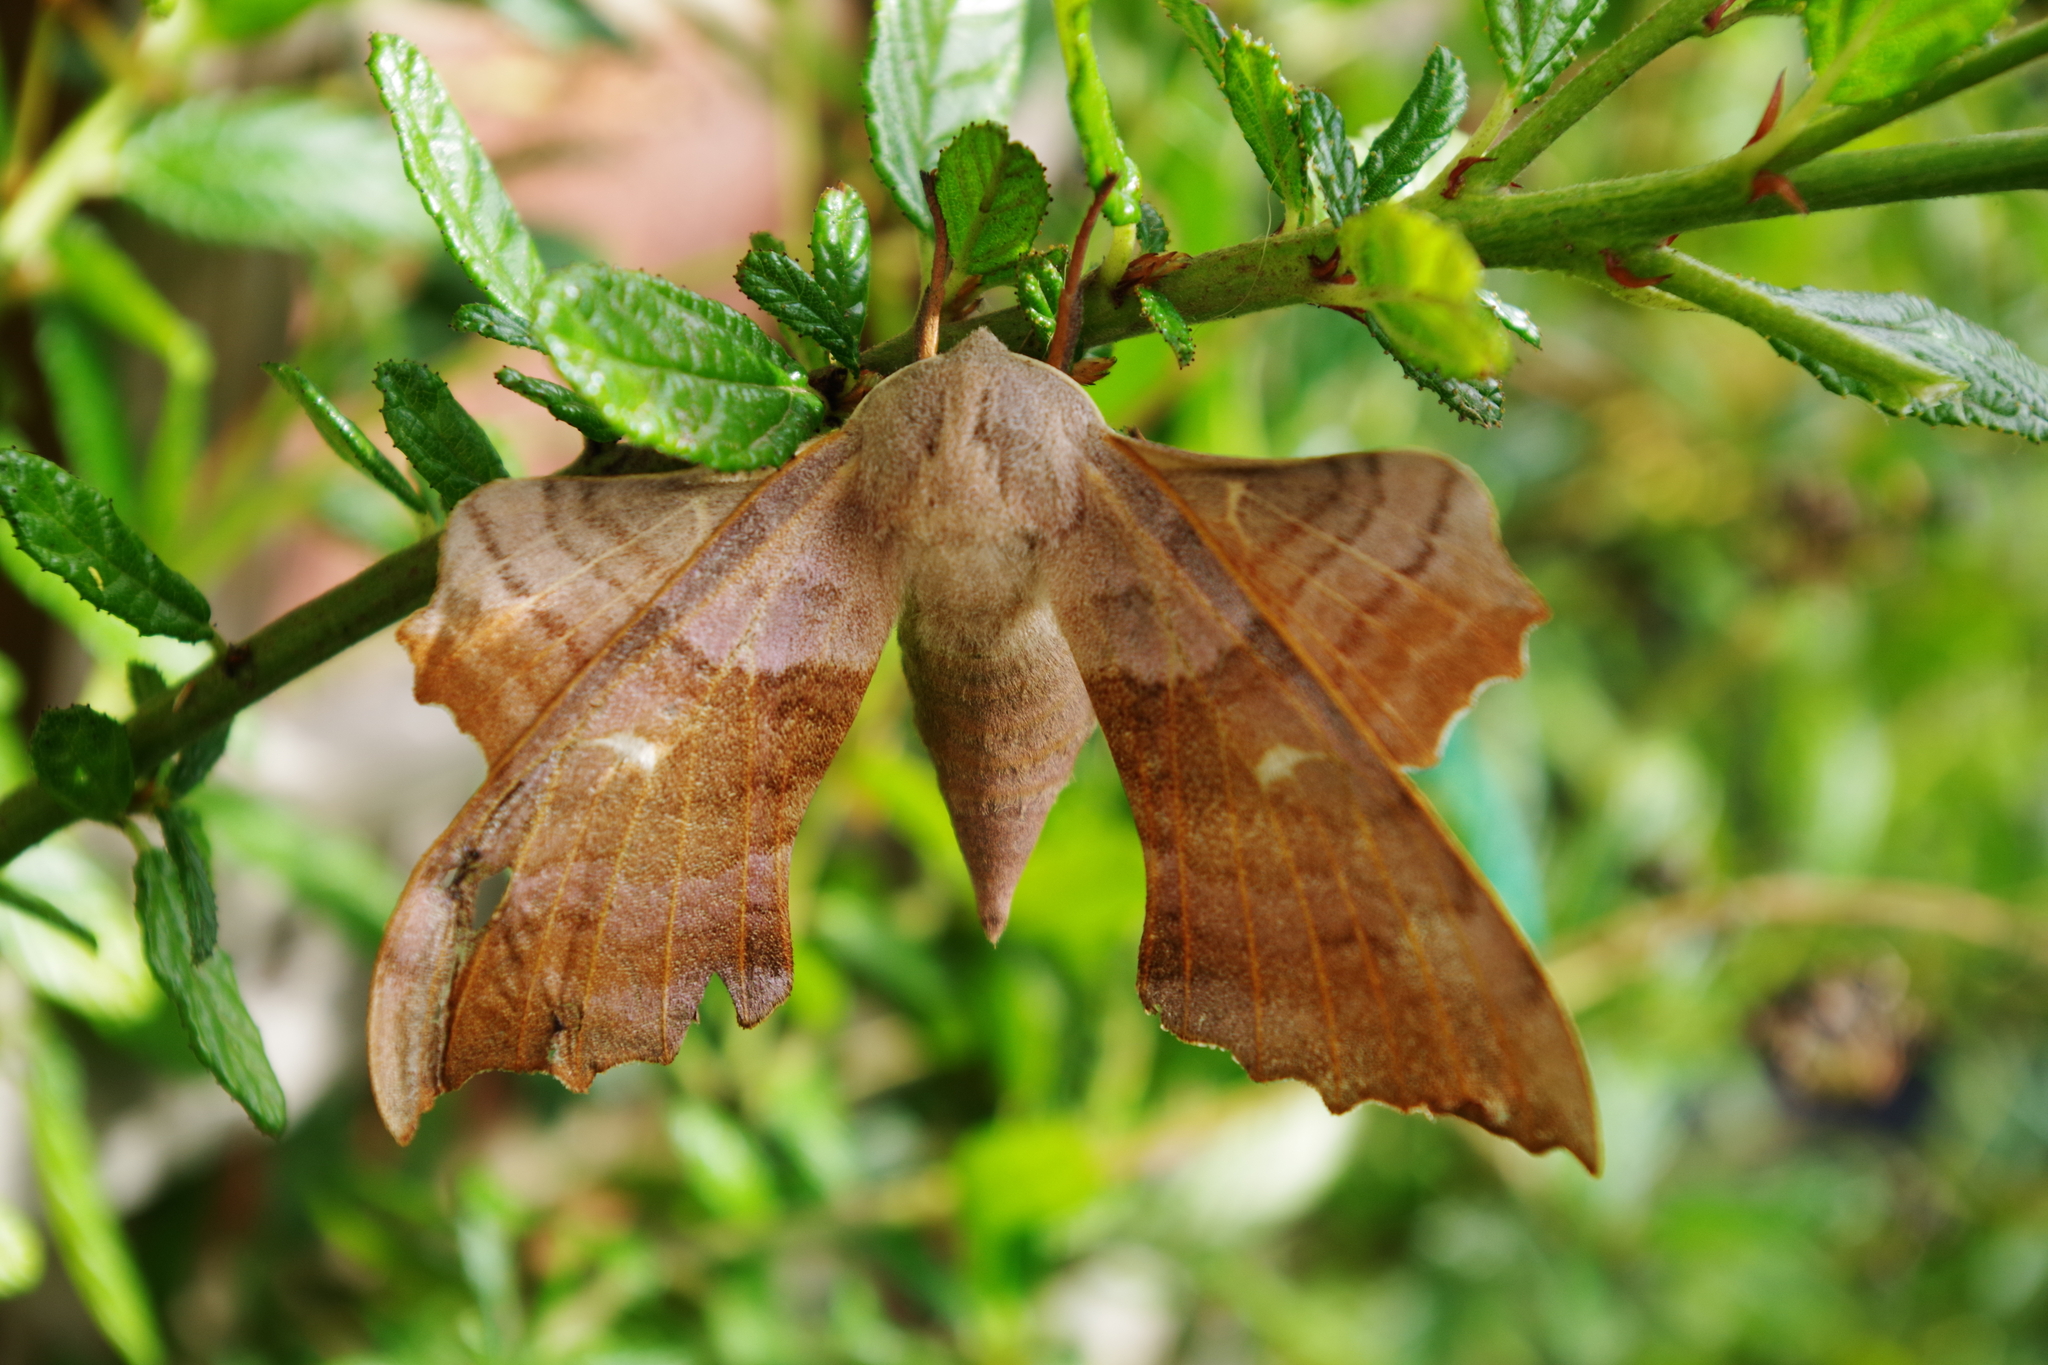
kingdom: Animalia
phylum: Arthropoda
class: Insecta
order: Lepidoptera
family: Sphingidae
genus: Laothoe
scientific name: Laothoe populi
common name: Poplar hawk-moth
